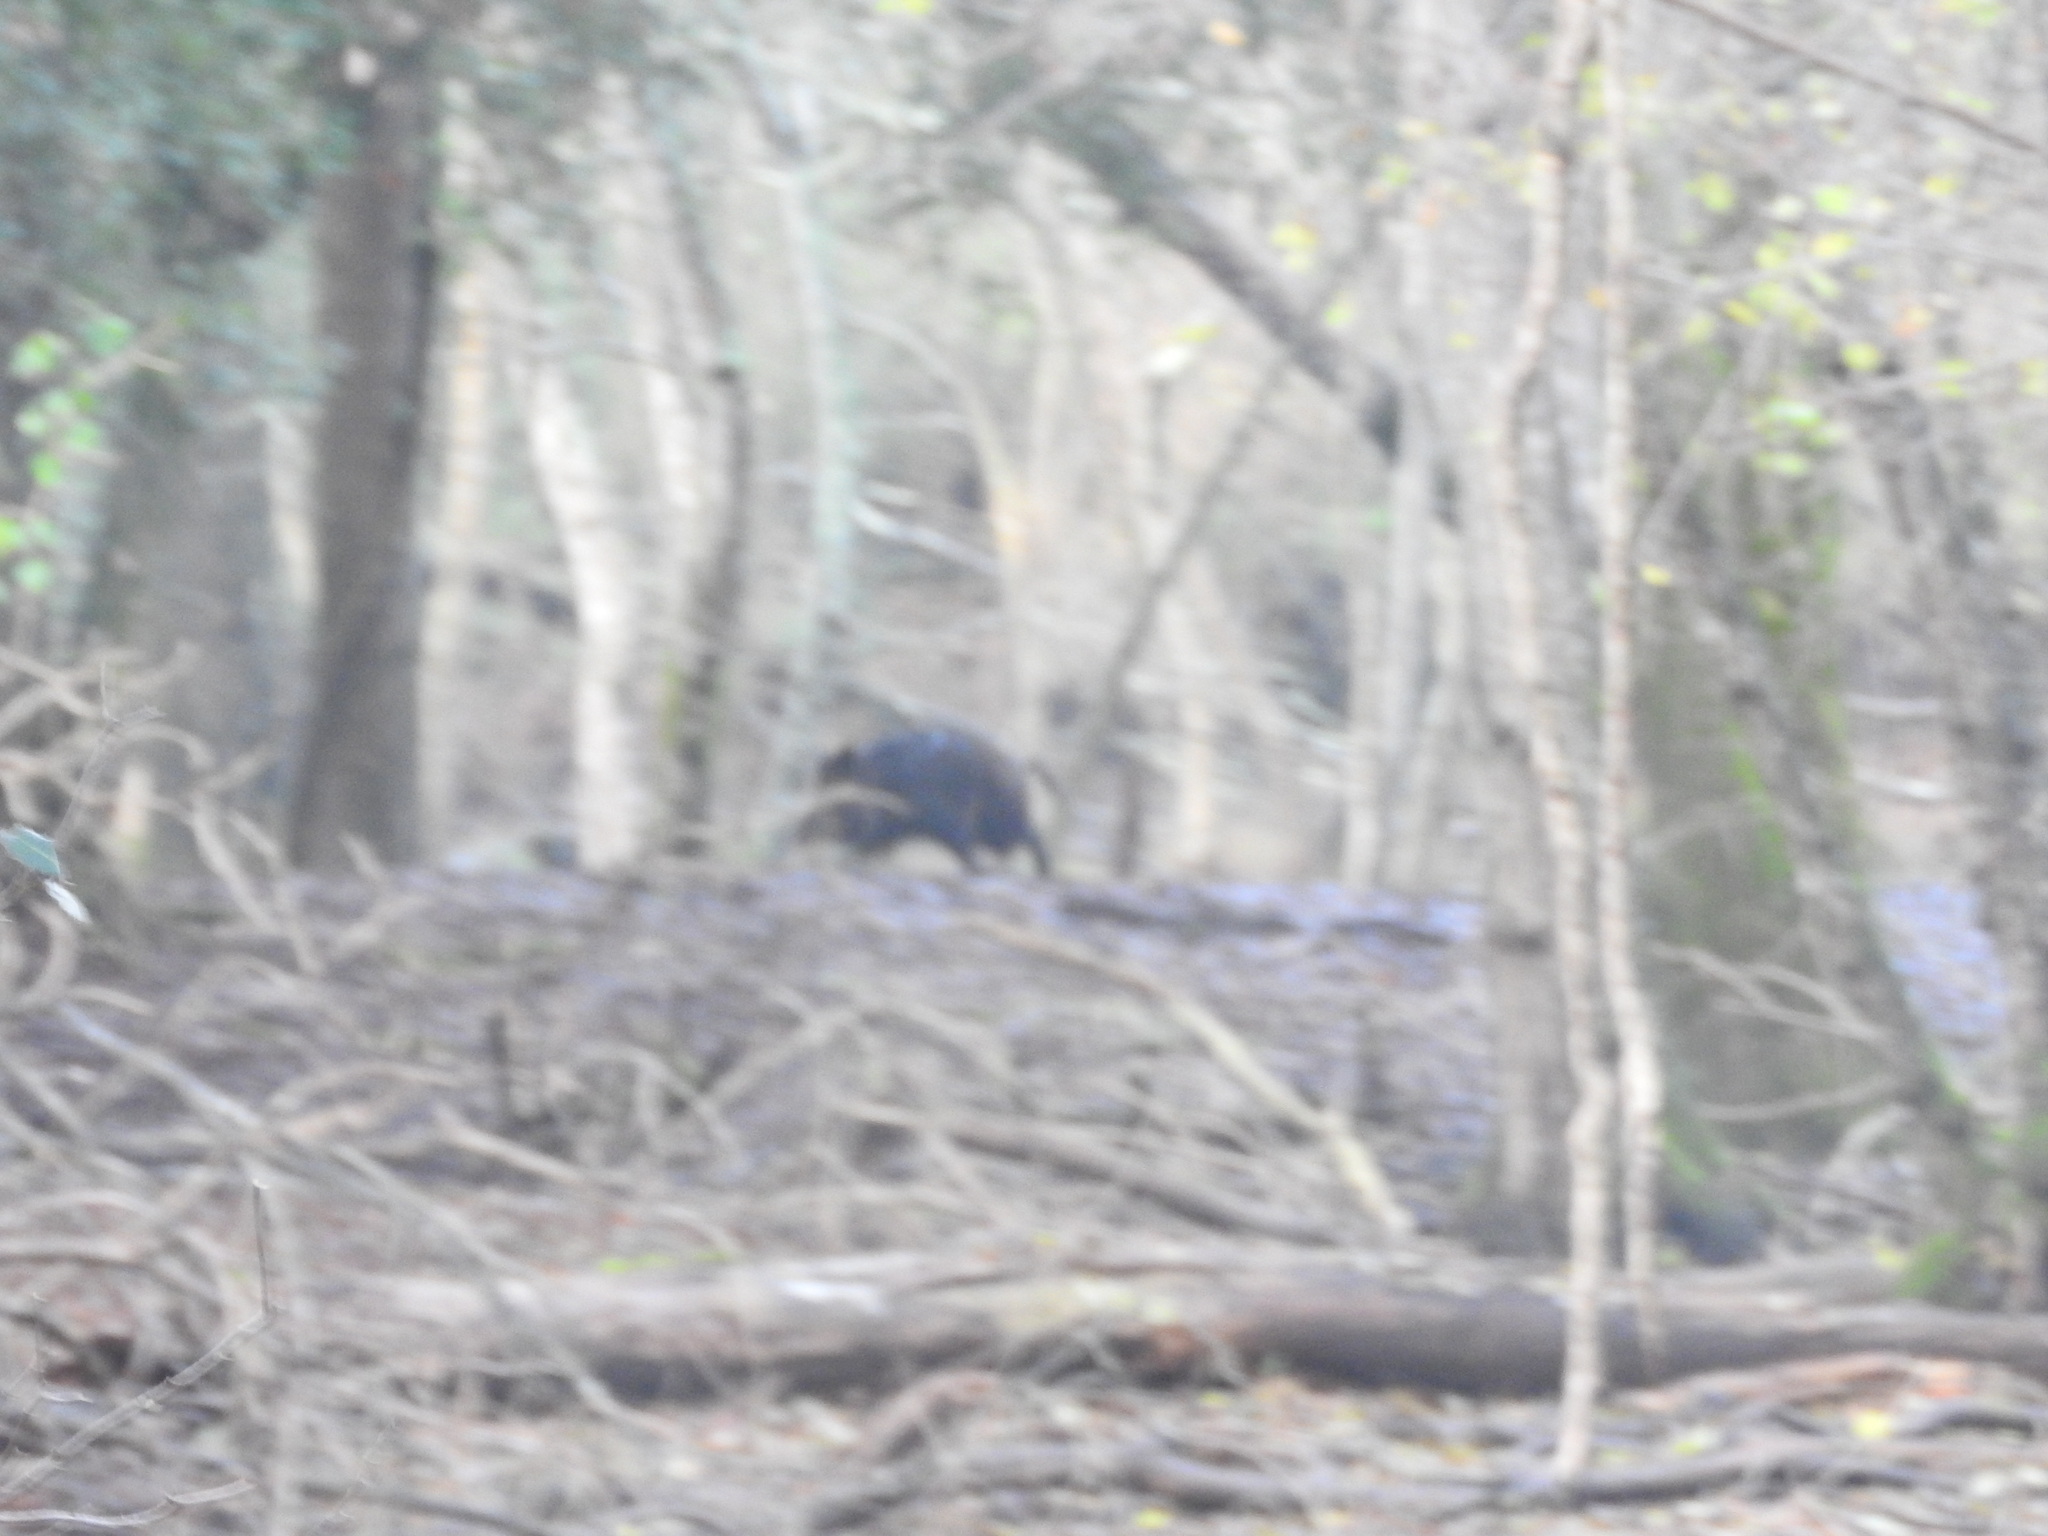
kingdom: Animalia
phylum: Chordata
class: Mammalia
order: Artiodactyla
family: Suidae
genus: Sus
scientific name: Sus scrofa
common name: Wild boar
